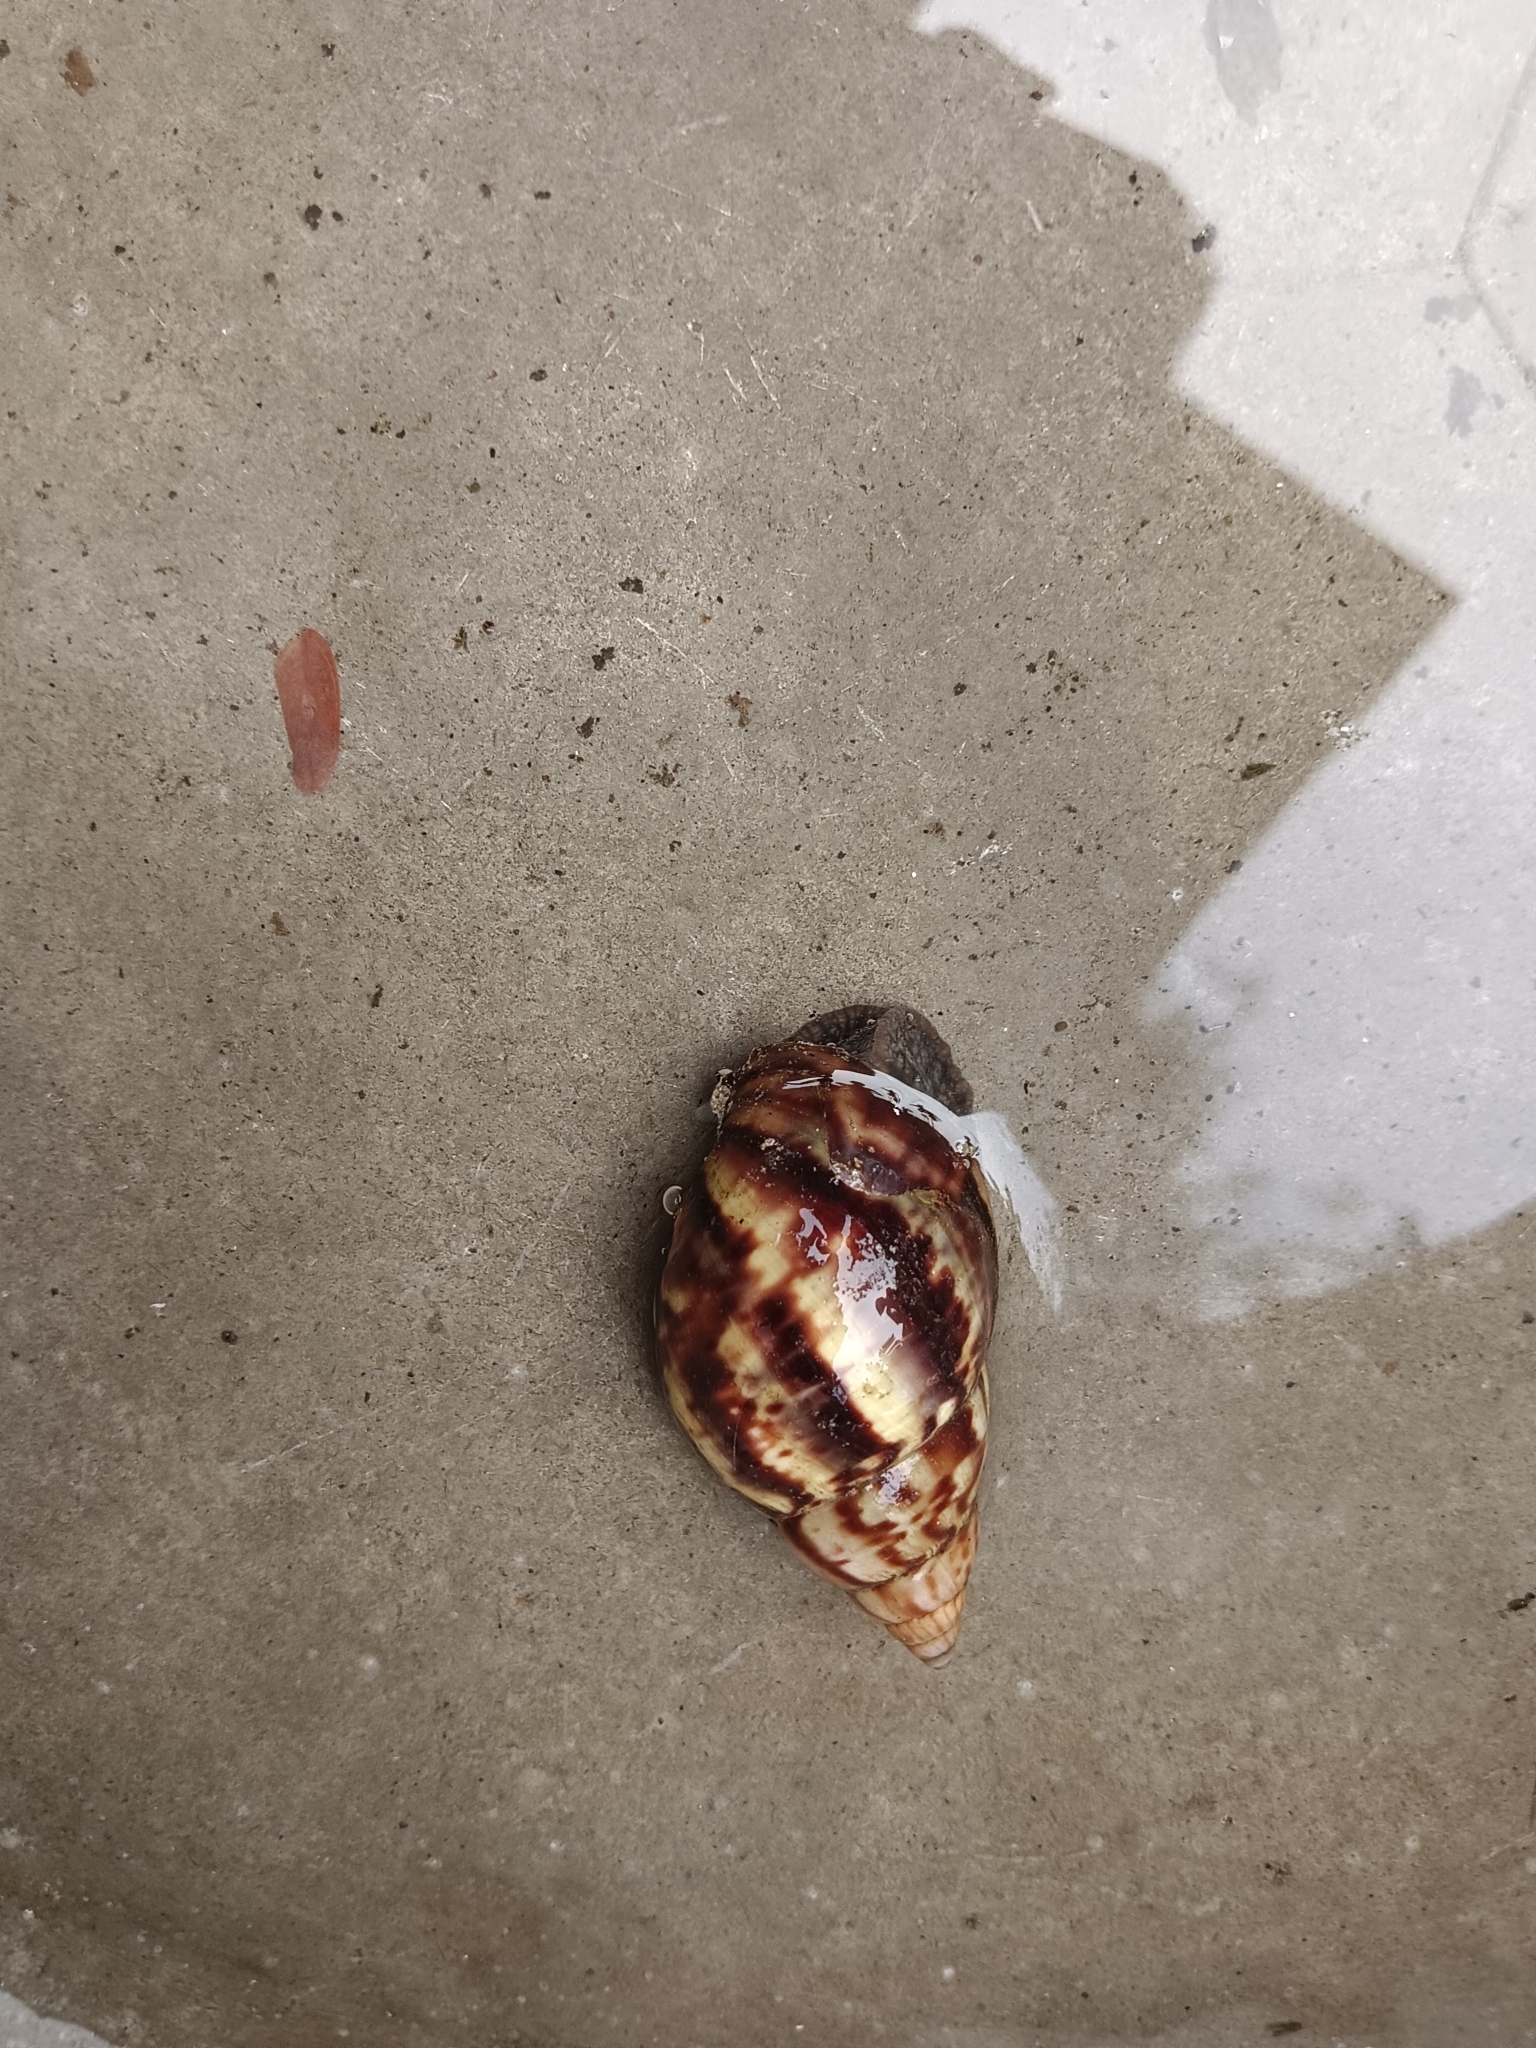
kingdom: Animalia
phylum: Mollusca
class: Gastropoda
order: Stylommatophora
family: Achatinidae
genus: Lissachatina
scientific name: Lissachatina fulica
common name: Giant african snail
